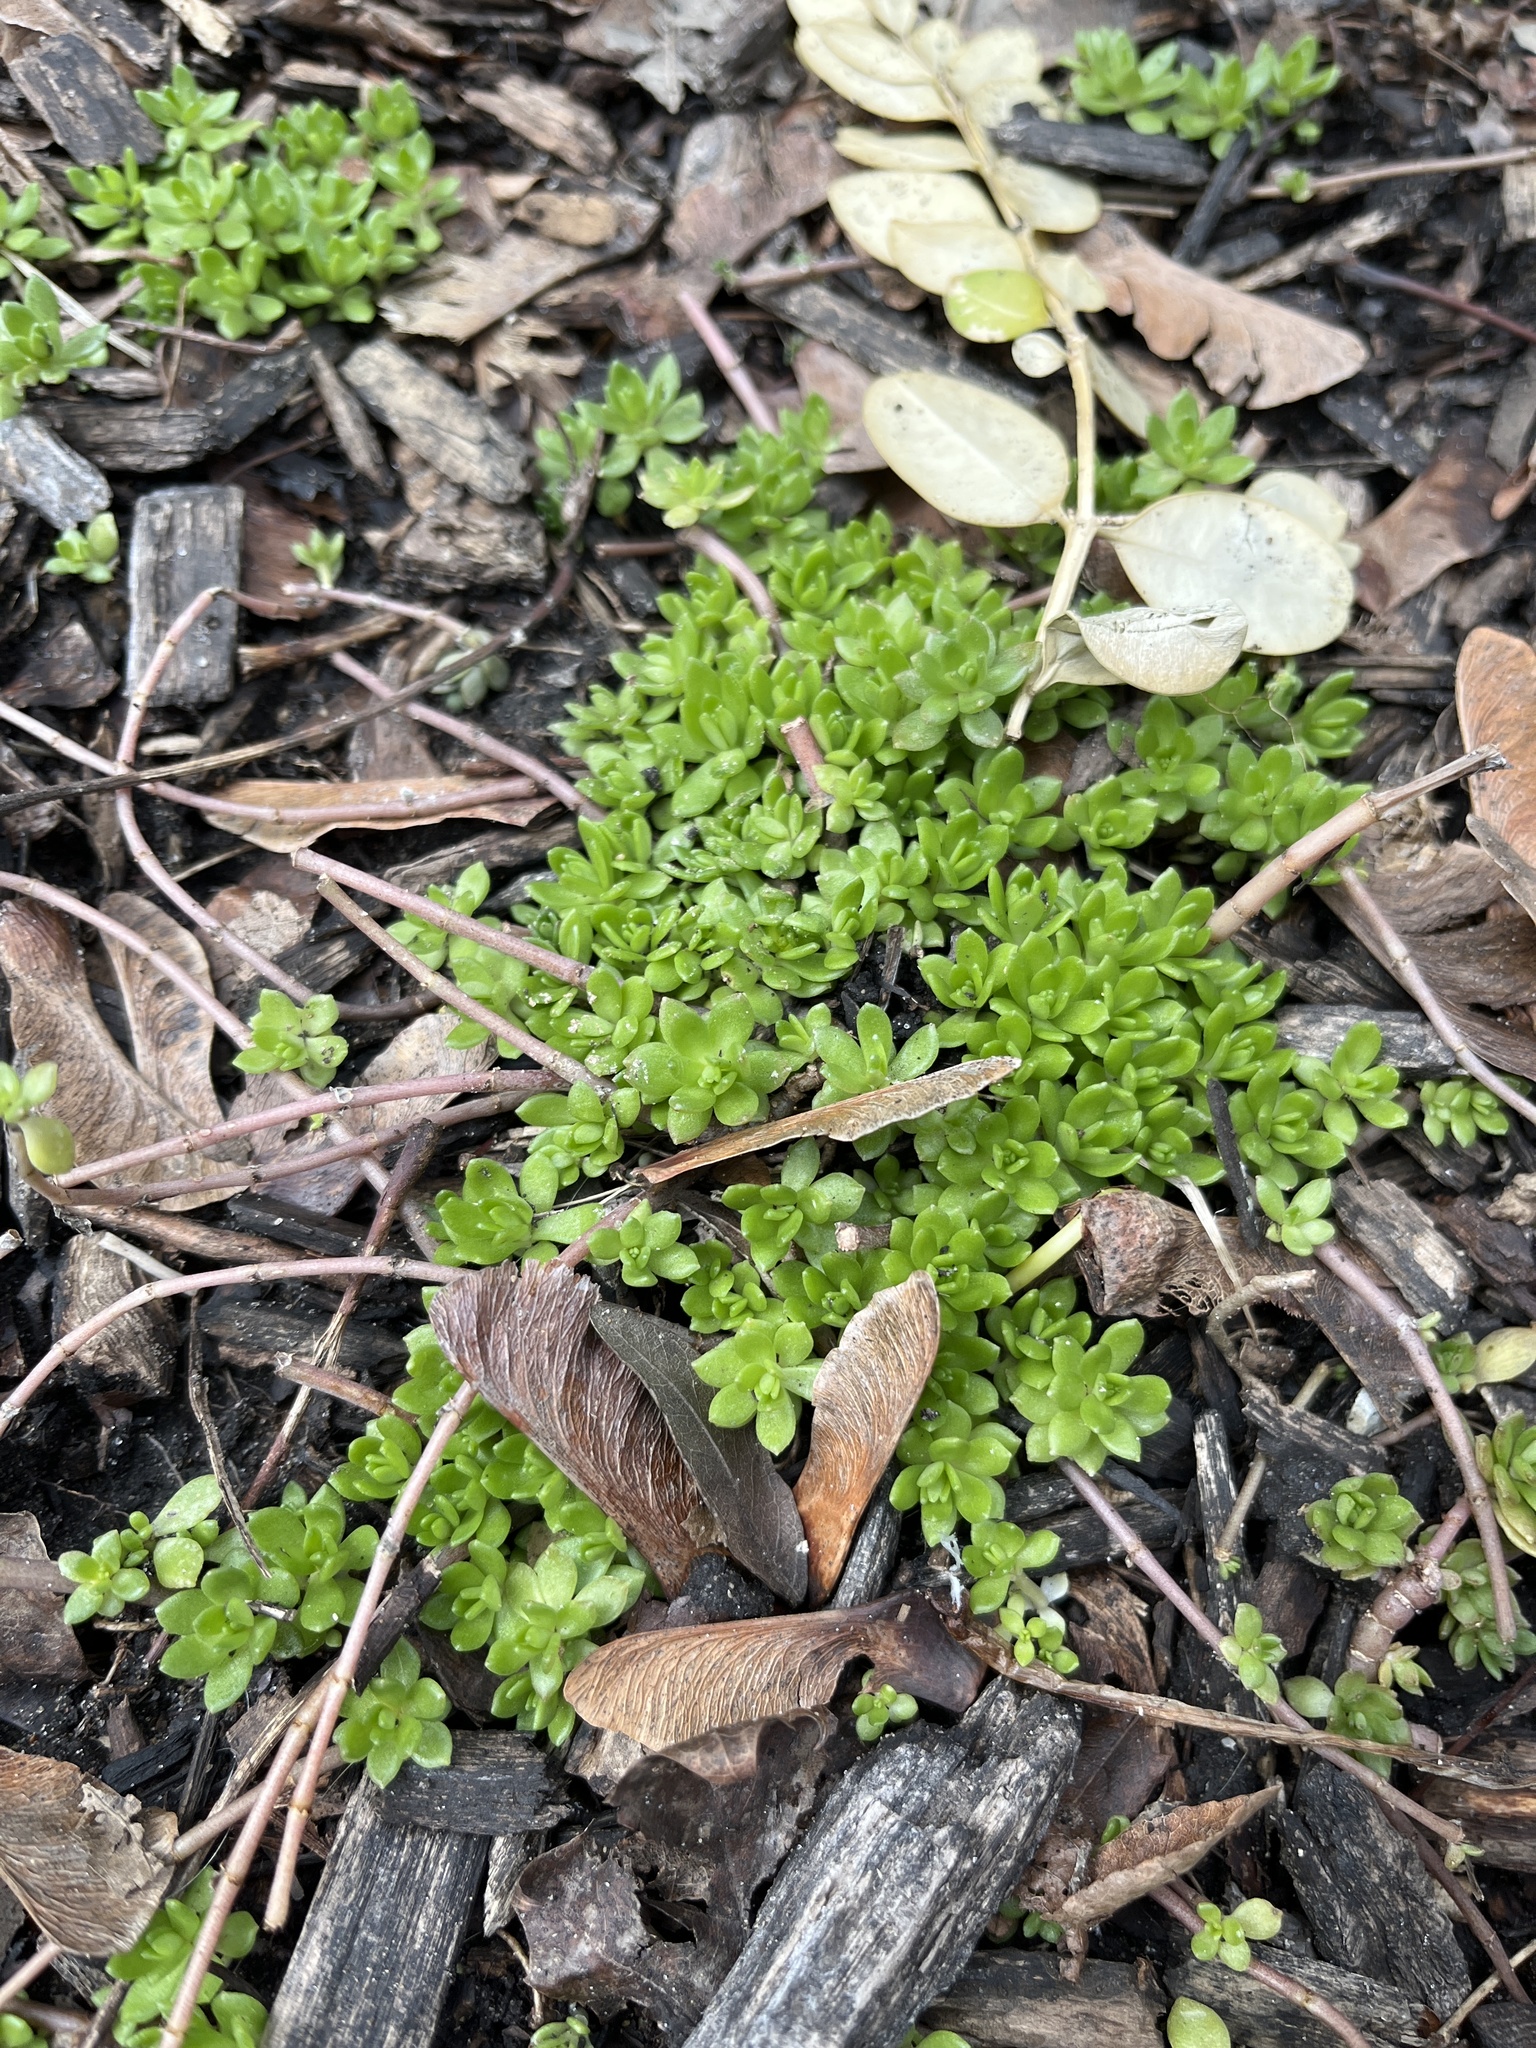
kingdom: Plantae
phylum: Tracheophyta
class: Magnoliopsida
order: Saxifragales
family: Crassulaceae
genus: Sedum
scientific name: Sedum sarmentosum
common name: Stringy stonecrop
